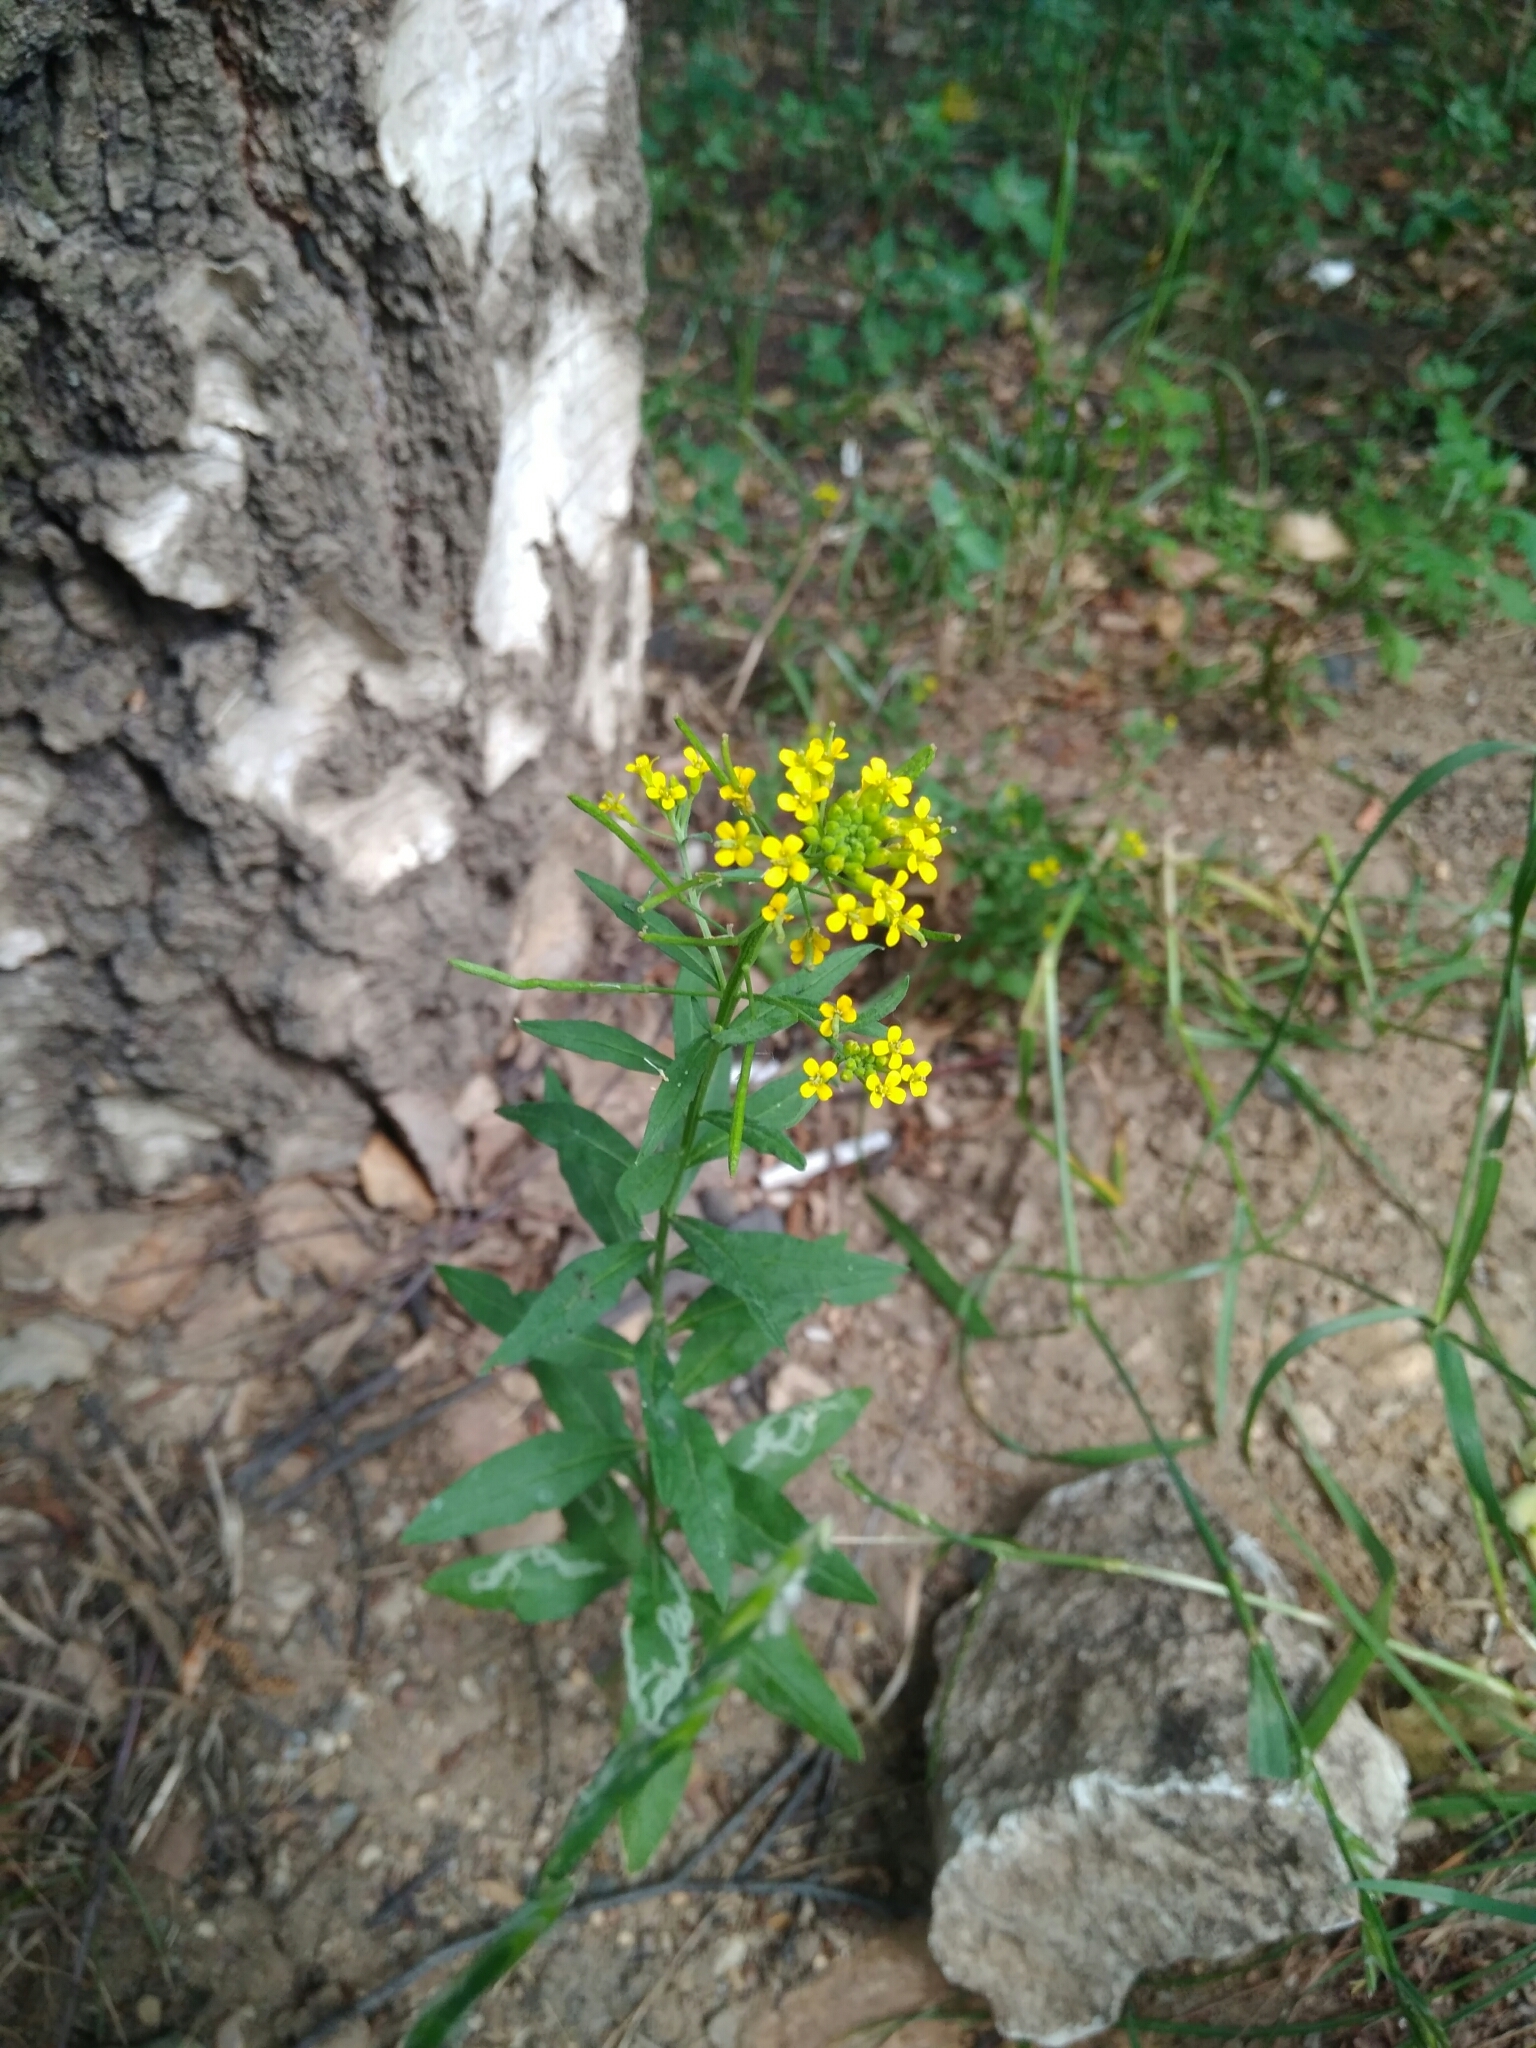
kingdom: Plantae
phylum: Tracheophyta
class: Magnoliopsida
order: Brassicales
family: Brassicaceae
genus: Erysimum
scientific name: Erysimum cheiranthoides
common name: Treacle mustard
